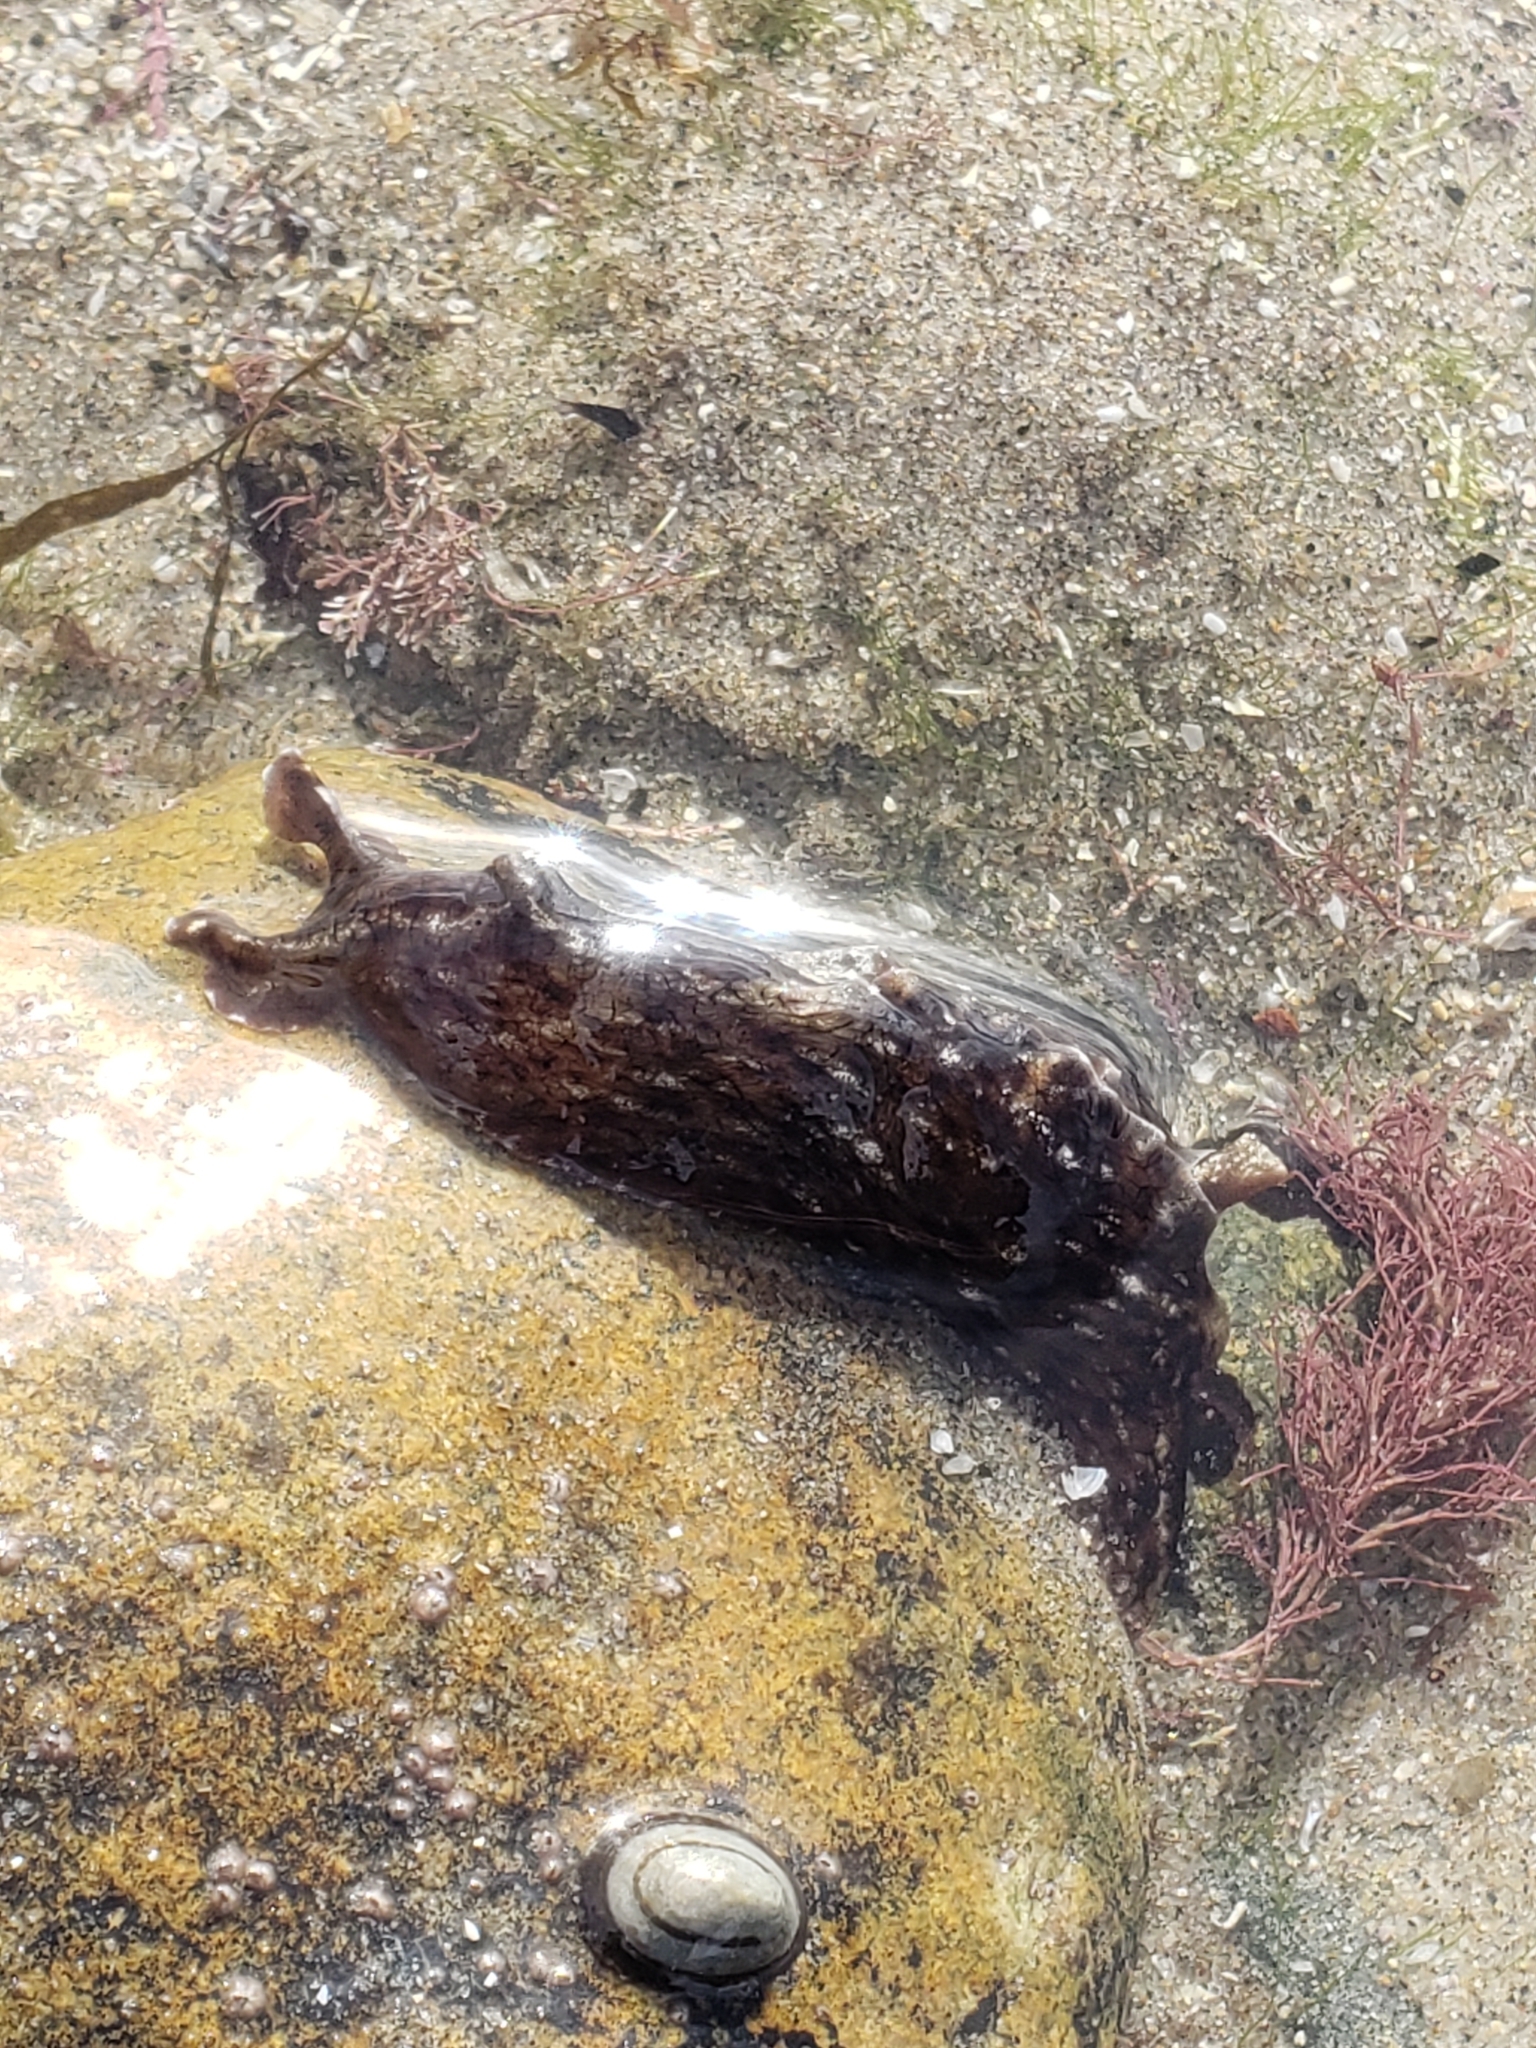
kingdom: Animalia
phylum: Mollusca
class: Gastropoda
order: Aplysiida
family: Aplysiidae
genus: Aplysia
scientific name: Aplysia californica
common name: California seahare
